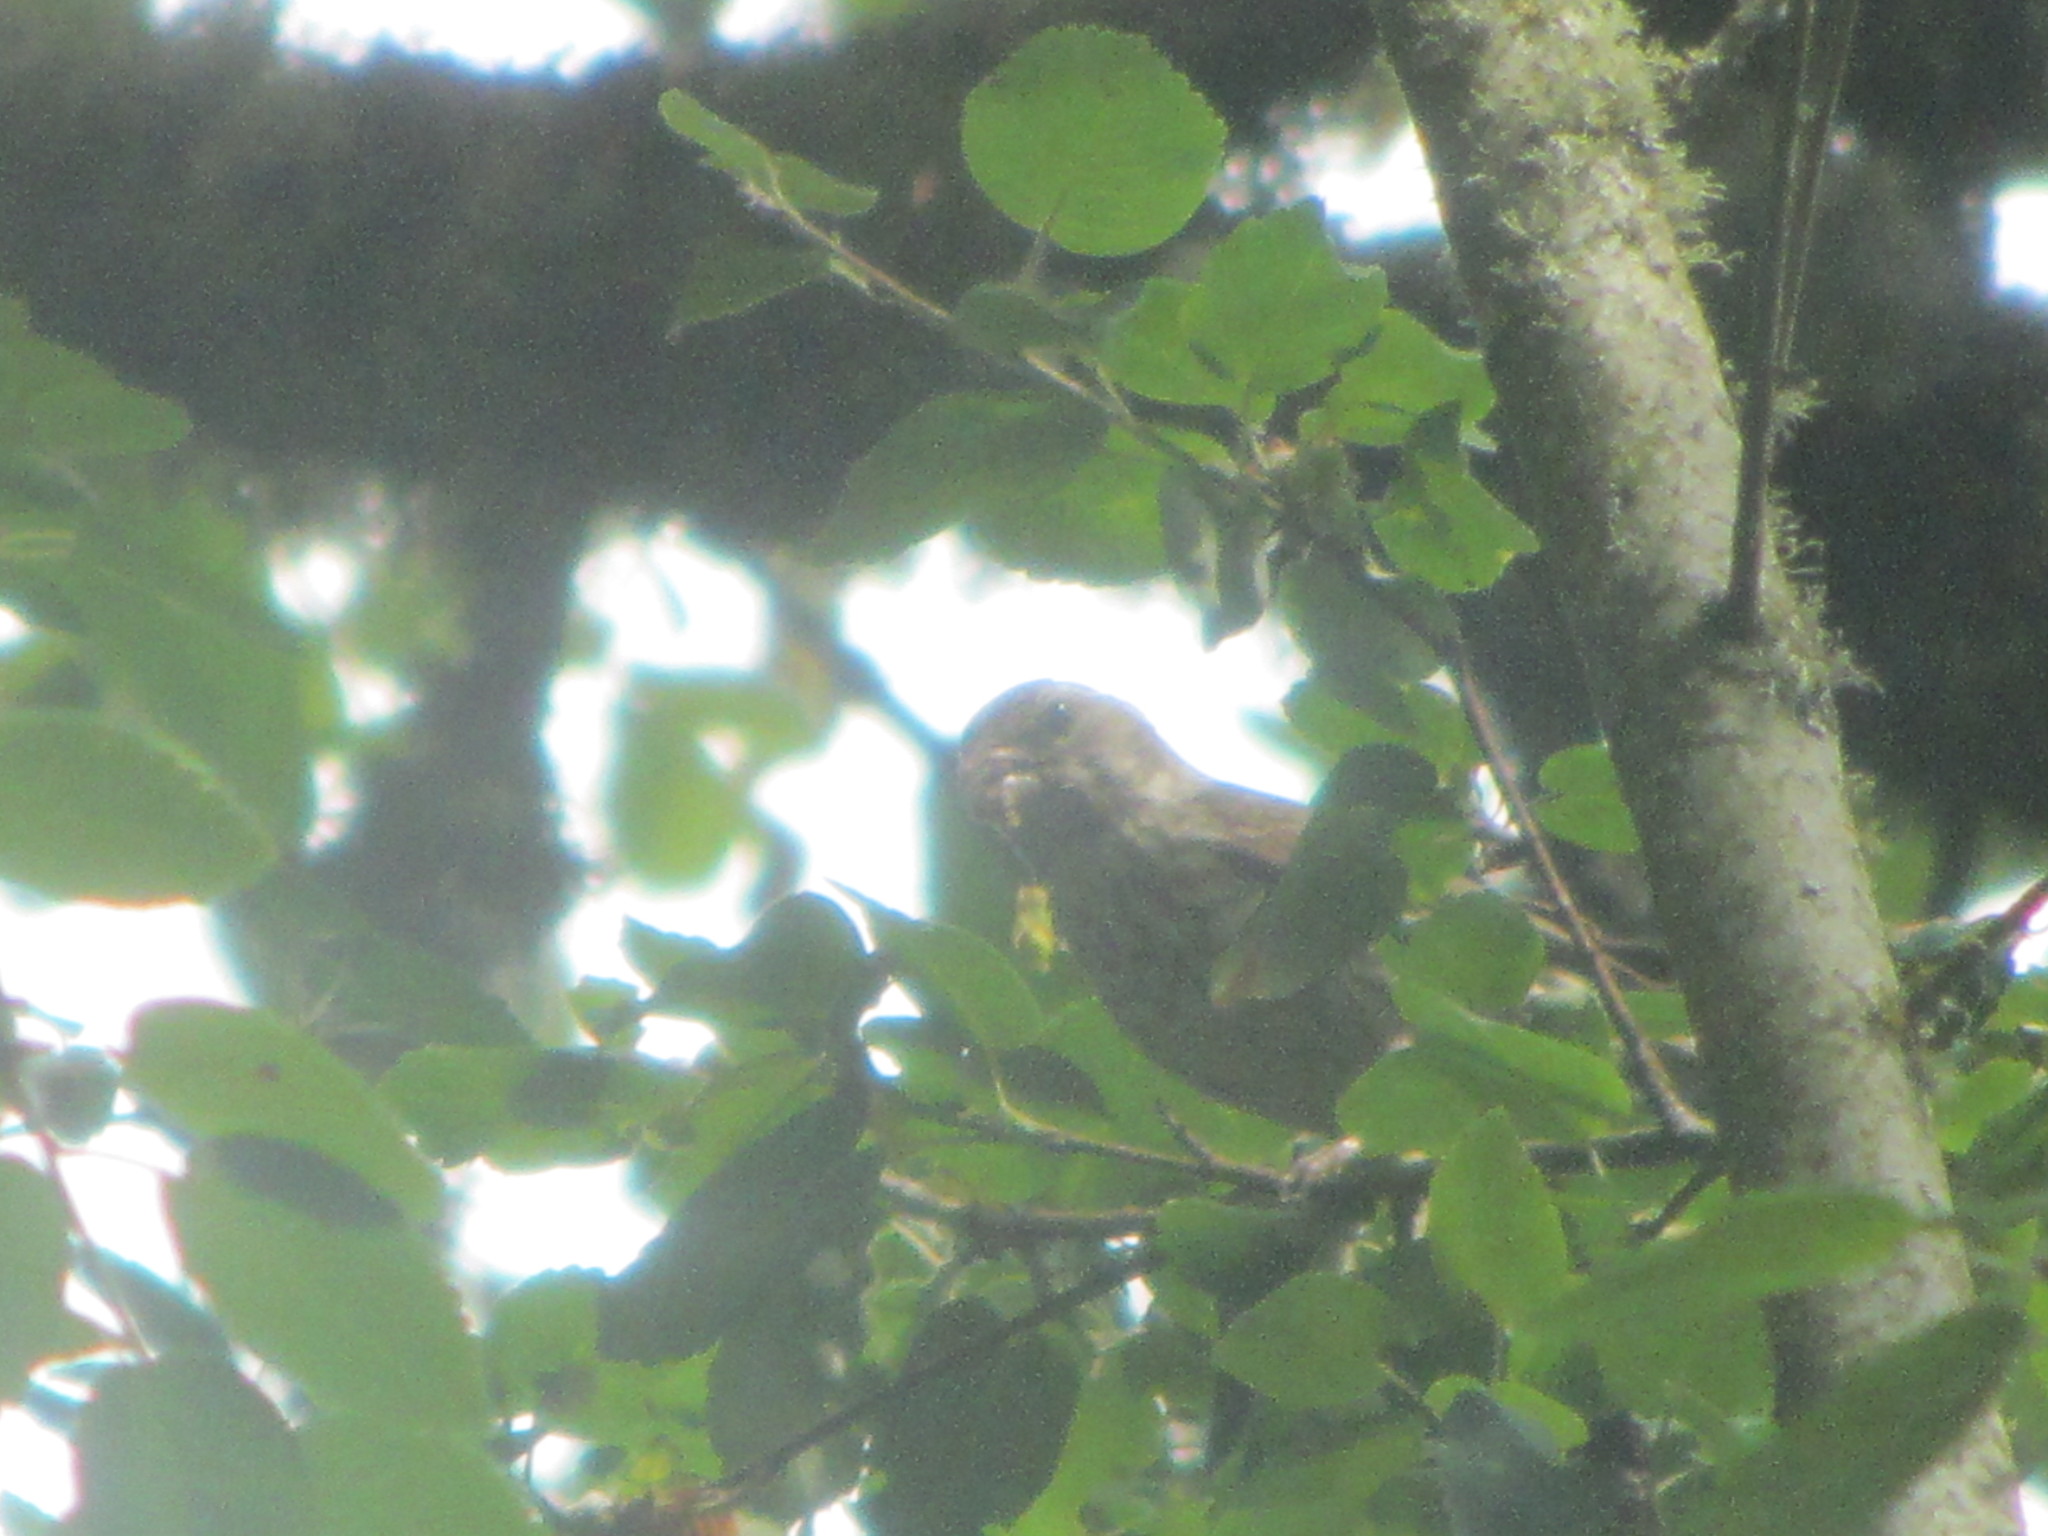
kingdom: Animalia
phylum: Chordata
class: Aves
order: Passeriformes
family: Fringillidae
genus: Haemorhous
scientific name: Haemorhous purpureus
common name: Purple finch
